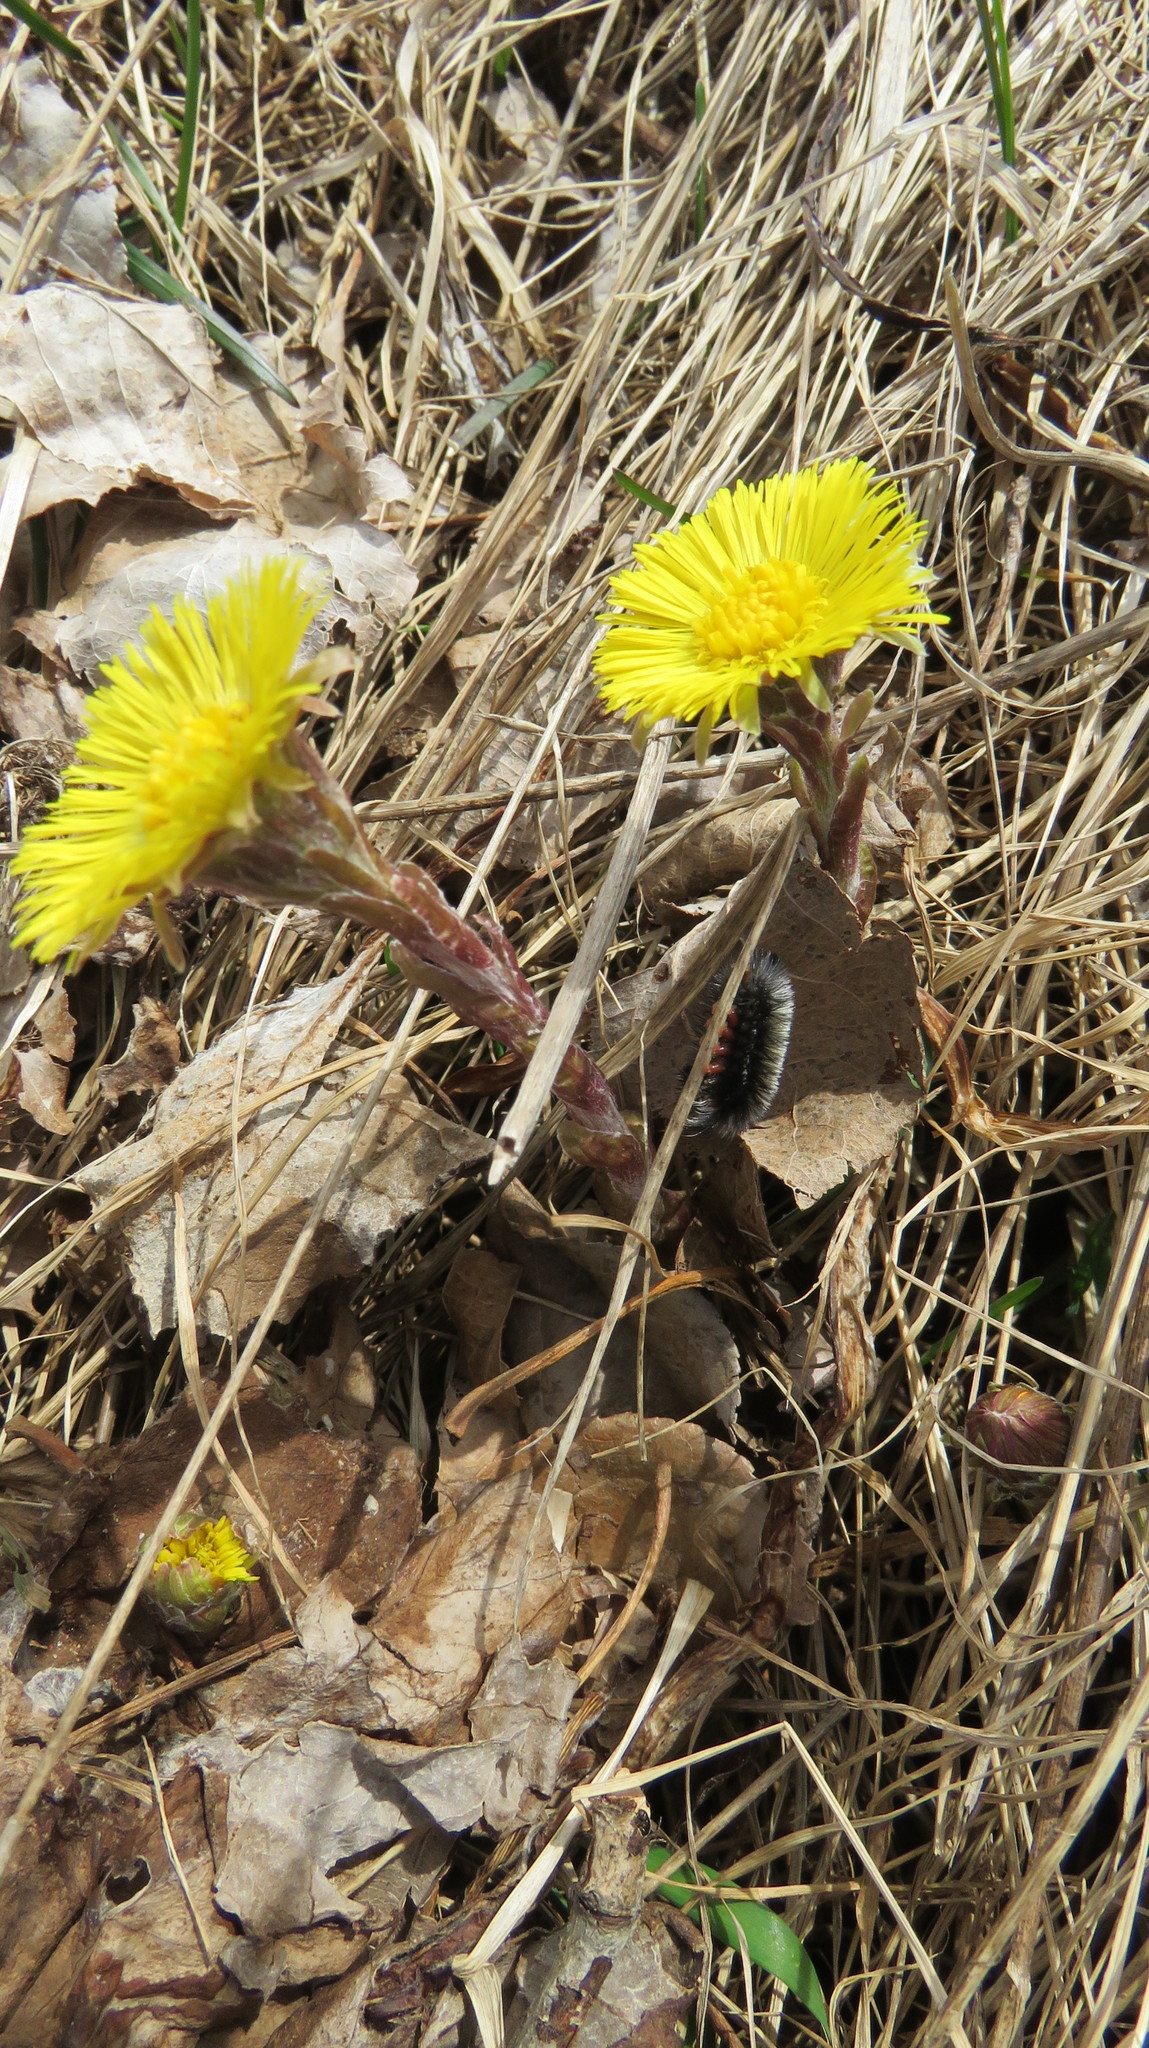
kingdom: Animalia
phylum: Arthropoda
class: Insecta
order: Lepidoptera
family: Erebidae
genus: Ctenucha
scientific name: Ctenucha virginica
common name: Virginia ctenucha moth
